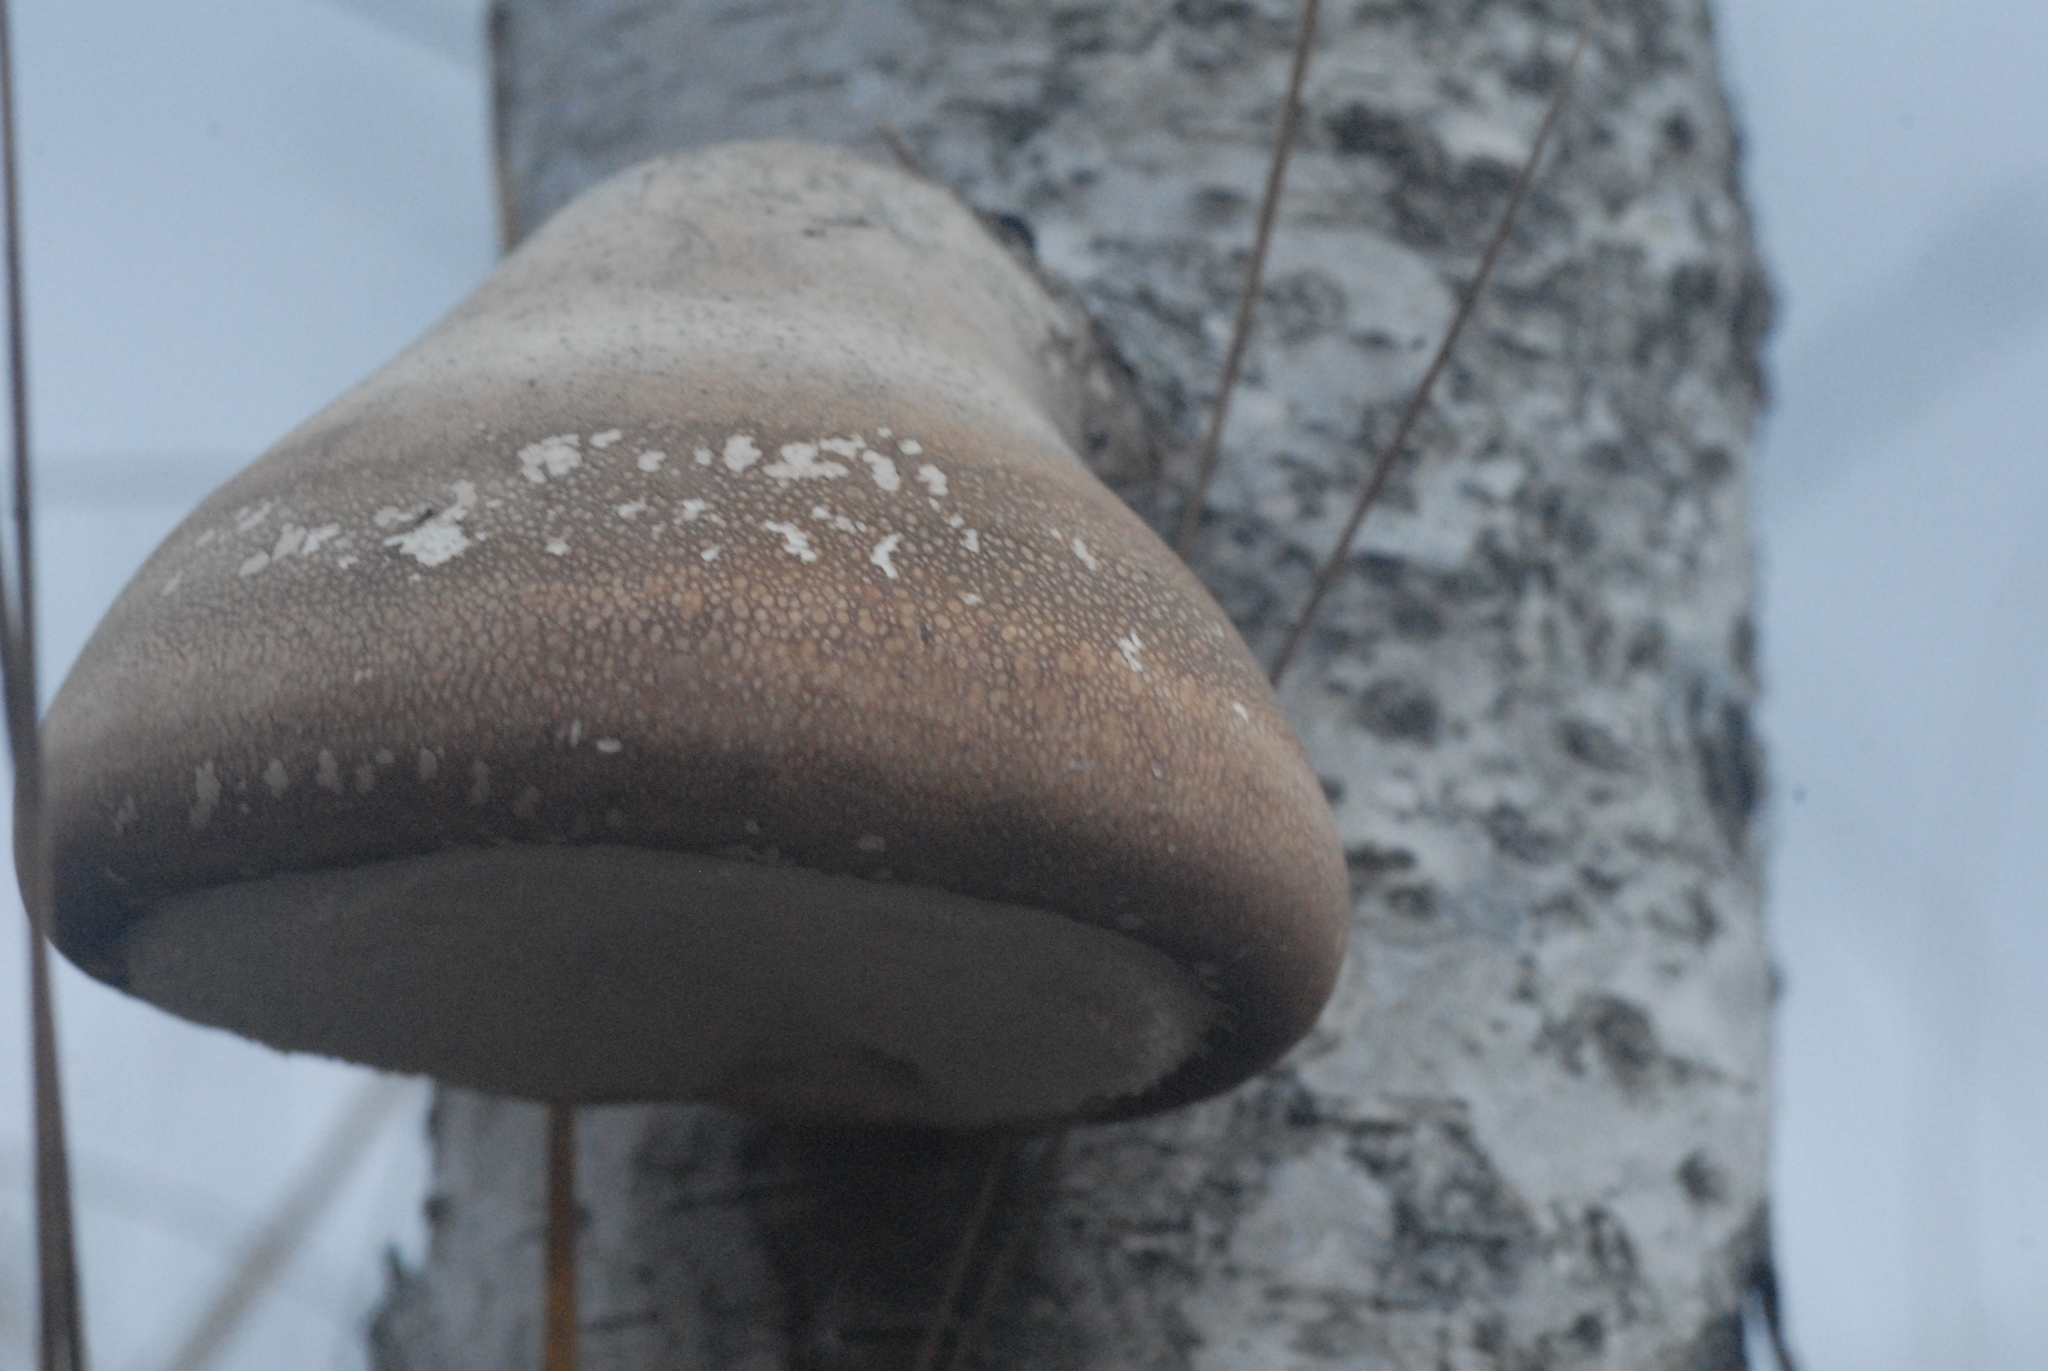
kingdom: Fungi
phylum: Basidiomycota
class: Agaricomycetes
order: Polyporales
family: Fomitopsidaceae
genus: Fomitopsis
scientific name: Fomitopsis betulina
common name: Birch polypore
